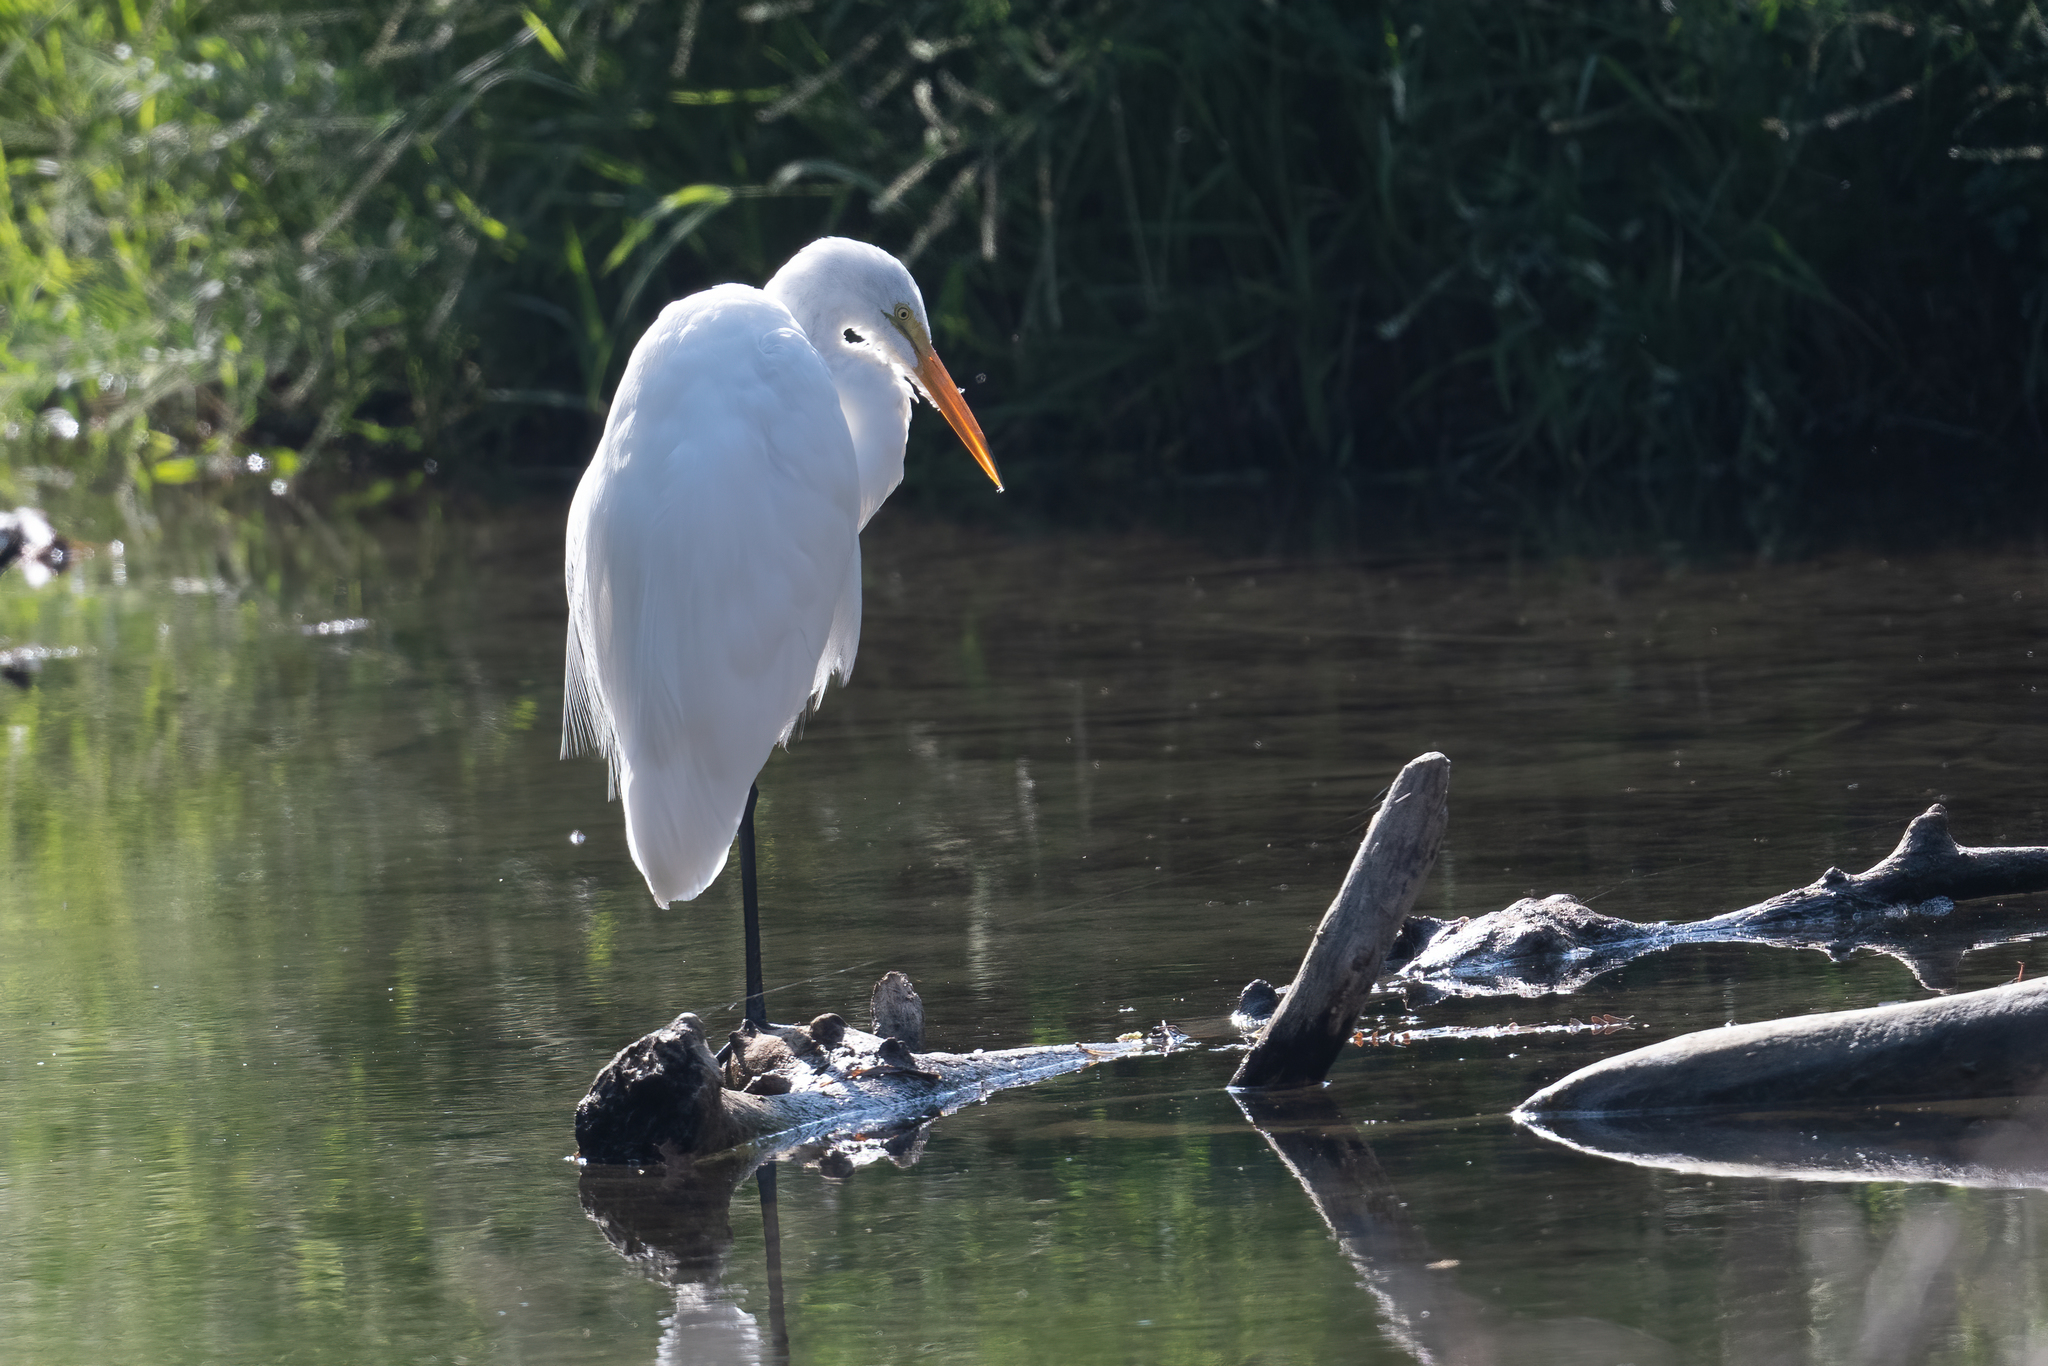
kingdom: Animalia
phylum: Chordata
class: Aves
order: Pelecaniformes
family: Ardeidae
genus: Ardea
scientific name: Ardea alba
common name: Great egret
